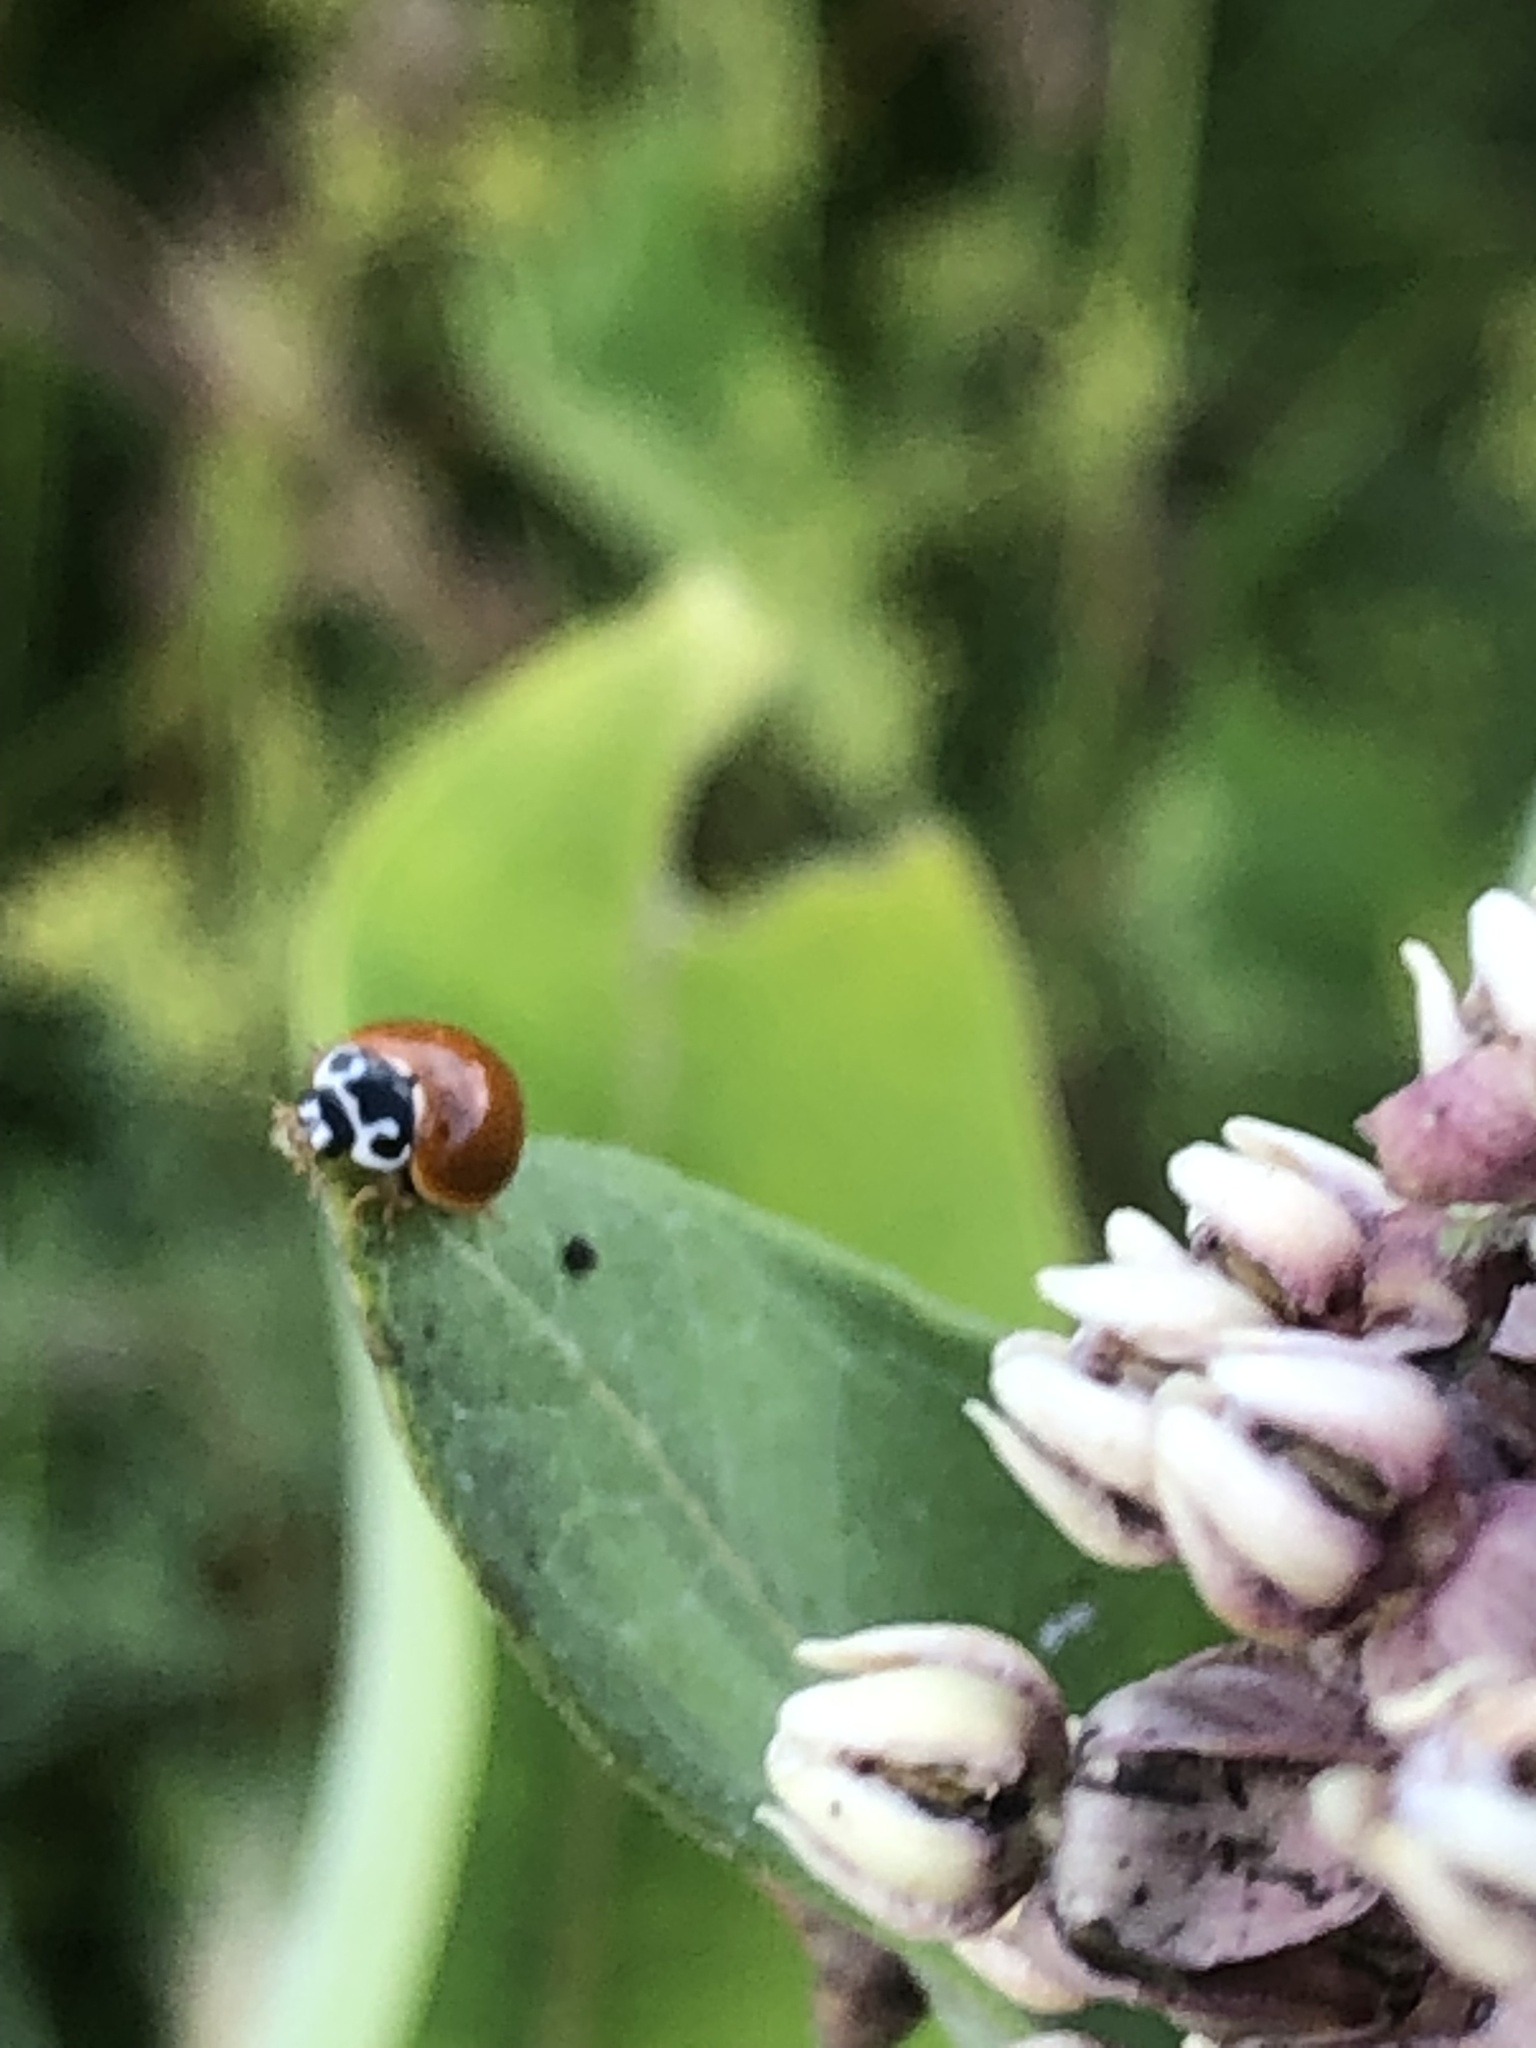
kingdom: Animalia
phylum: Arthropoda
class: Insecta
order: Coleoptera
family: Coccinellidae
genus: Cycloneda
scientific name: Cycloneda munda
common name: Polished lady beetle
